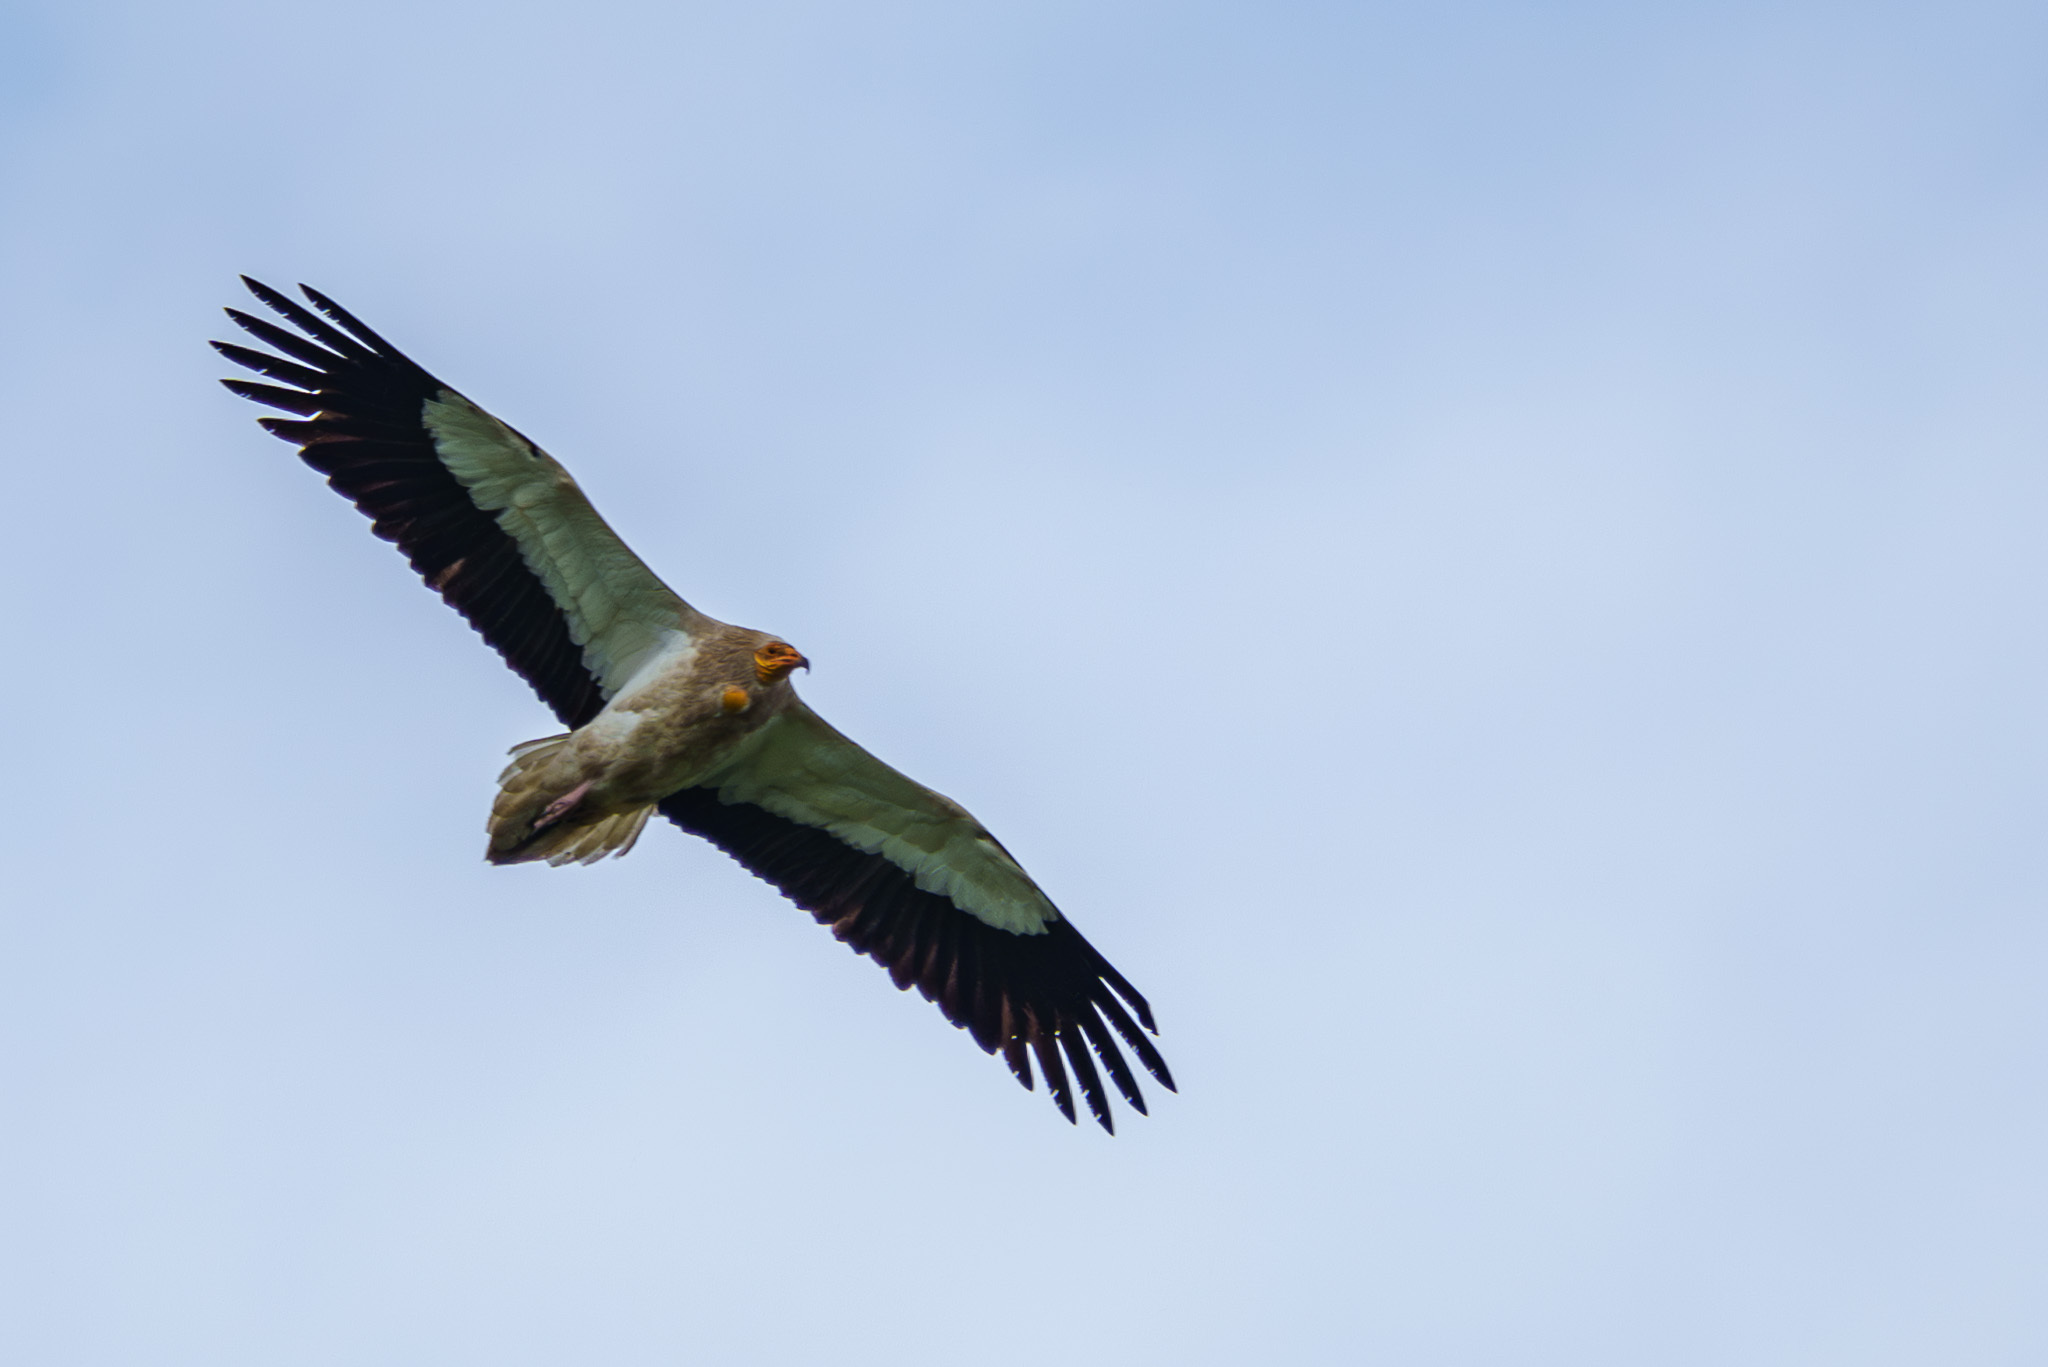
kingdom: Animalia
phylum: Chordata
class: Aves
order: Accipitriformes
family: Accipitridae
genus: Neophron
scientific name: Neophron percnopterus
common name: Egyptian vulture
